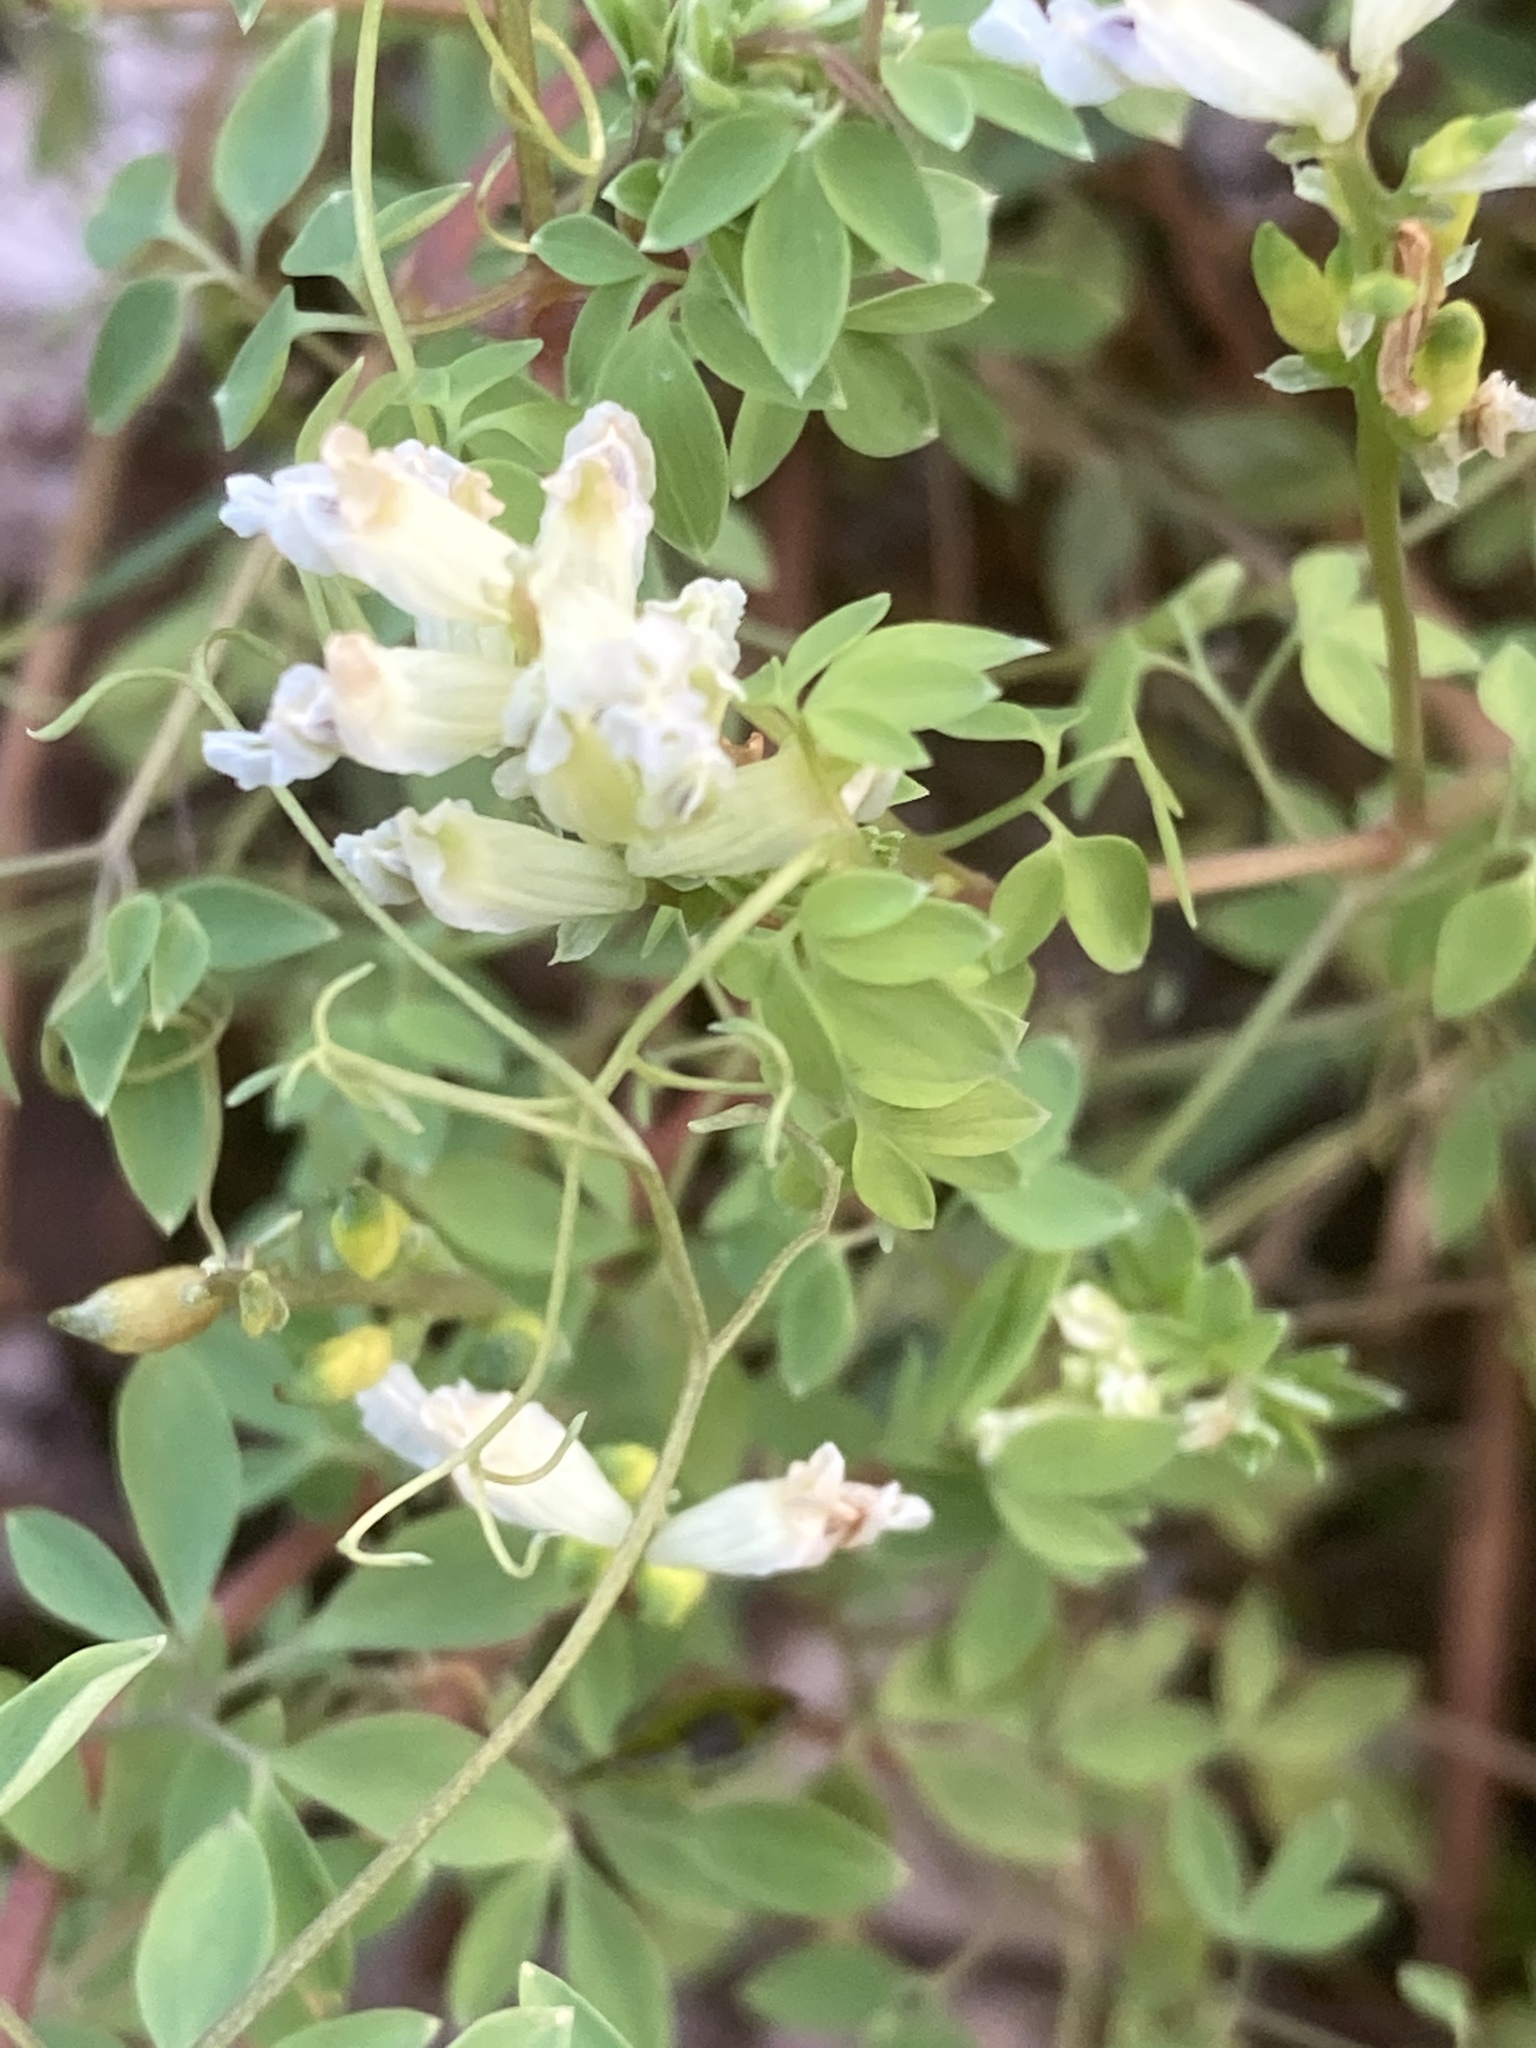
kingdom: Plantae
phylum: Tracheophyta
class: Magnoliopsida
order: Ranunculales
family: Papaveraceae
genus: Ceratocapnos
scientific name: Ceratocapnos claviculata
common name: Climbing corydalis
